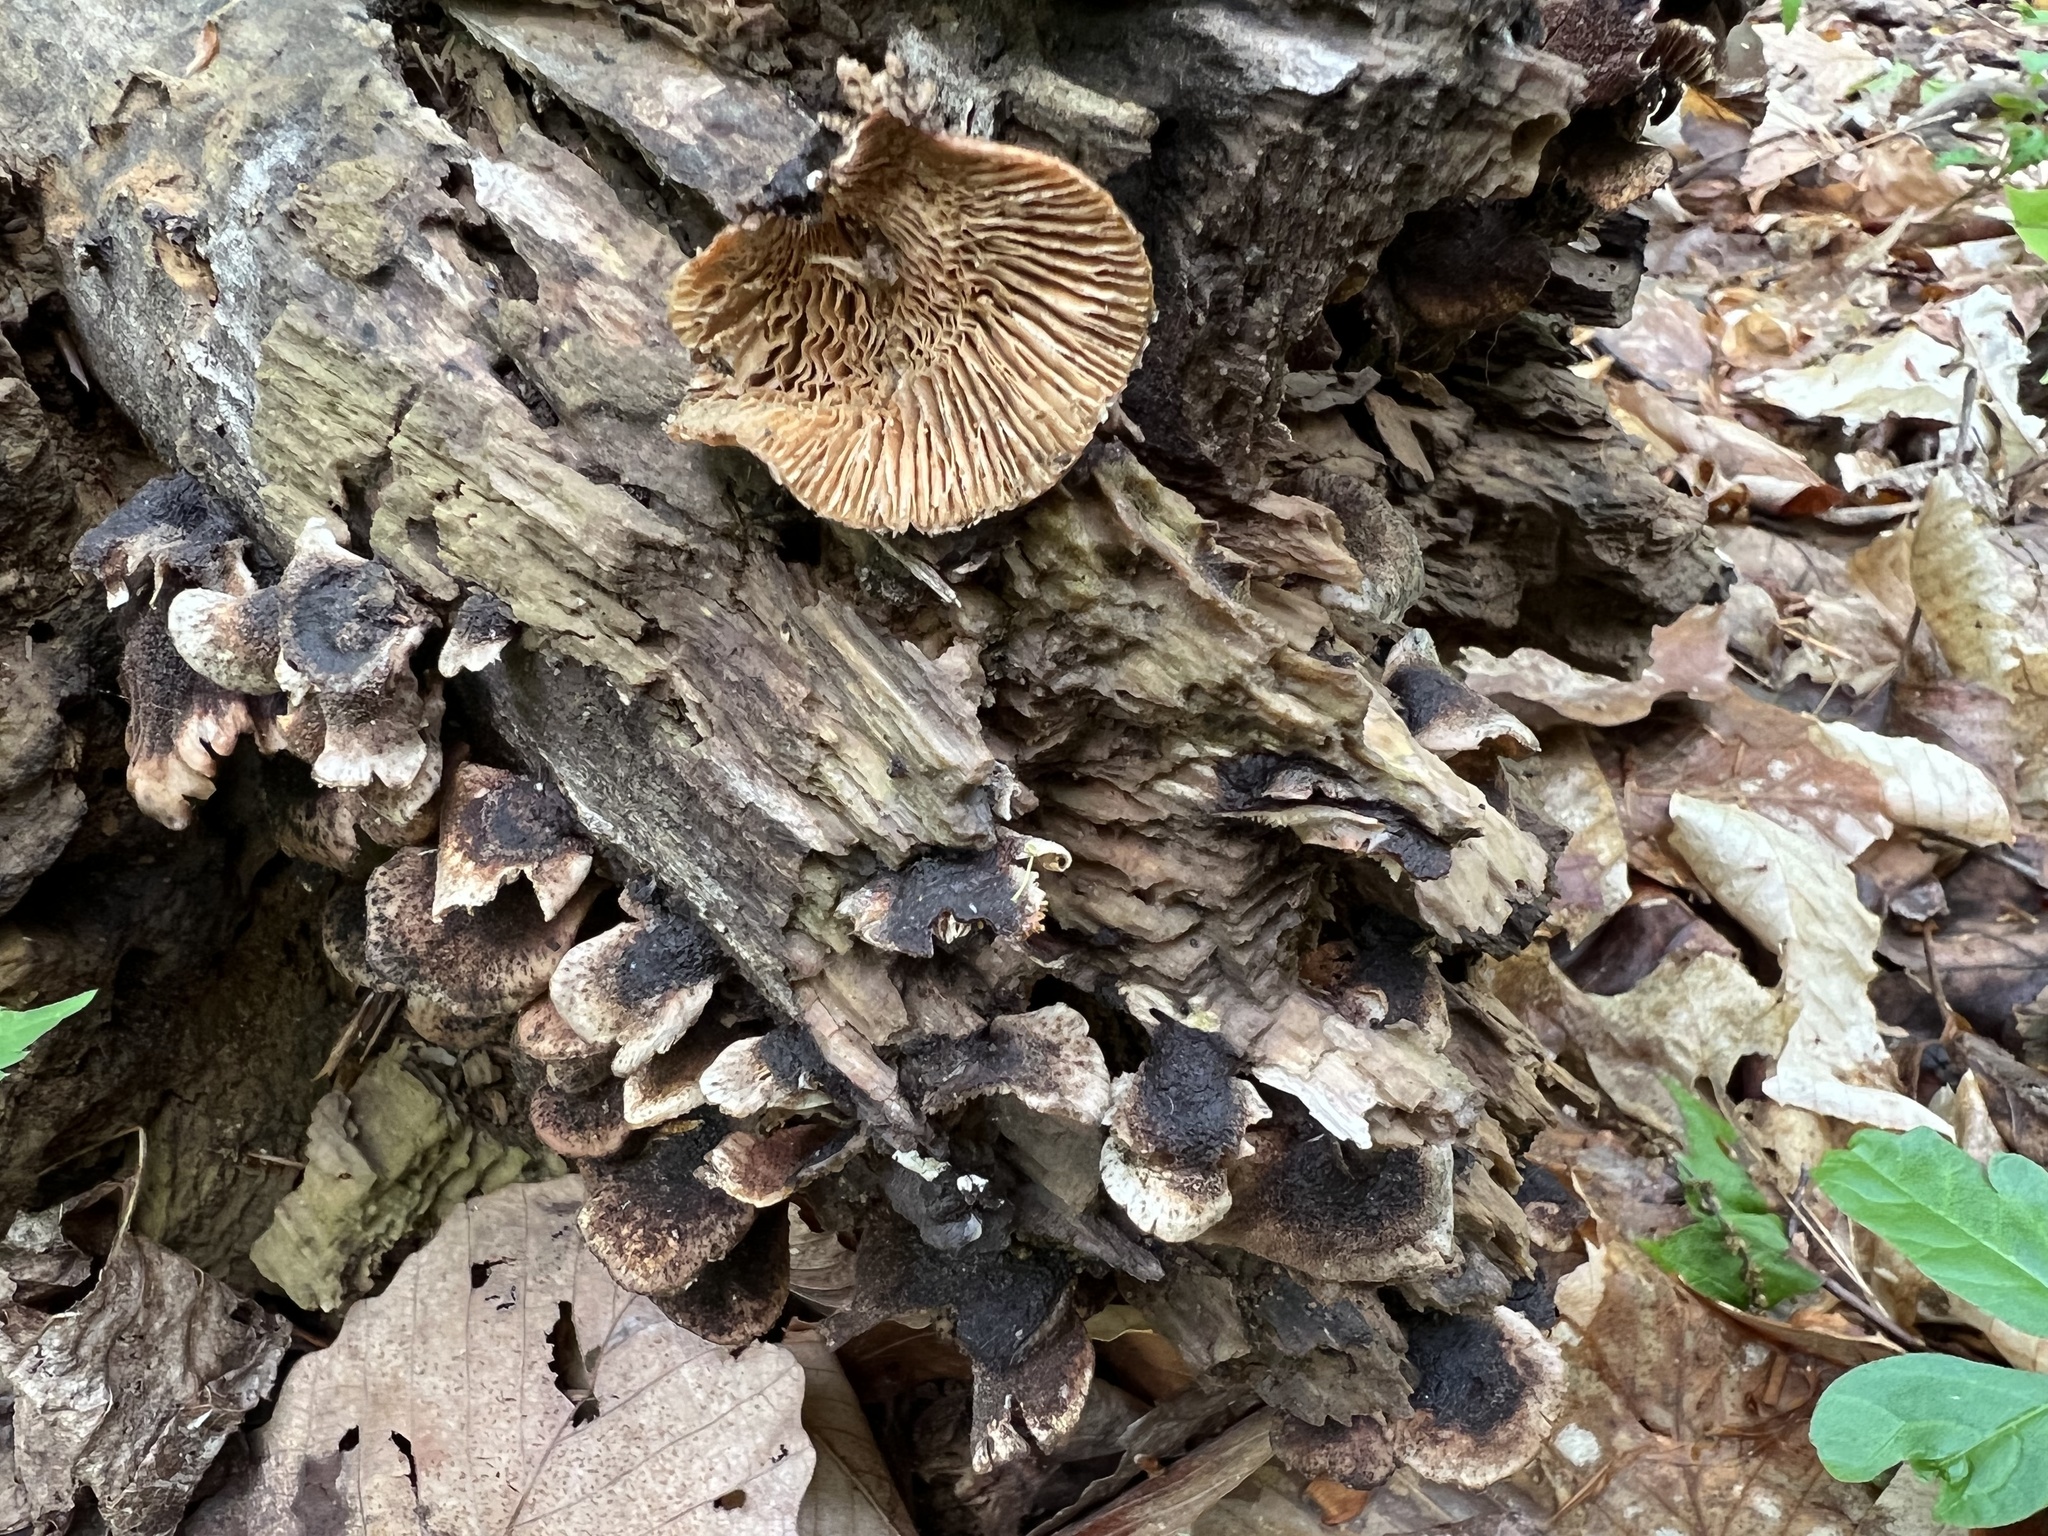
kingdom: Fungi
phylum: Basidiomycota
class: Agaricomycetes
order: Russulales
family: Auriscalpiaceae
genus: Lentinellus
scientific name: Lentinellus ursinus
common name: Bear lentinus
